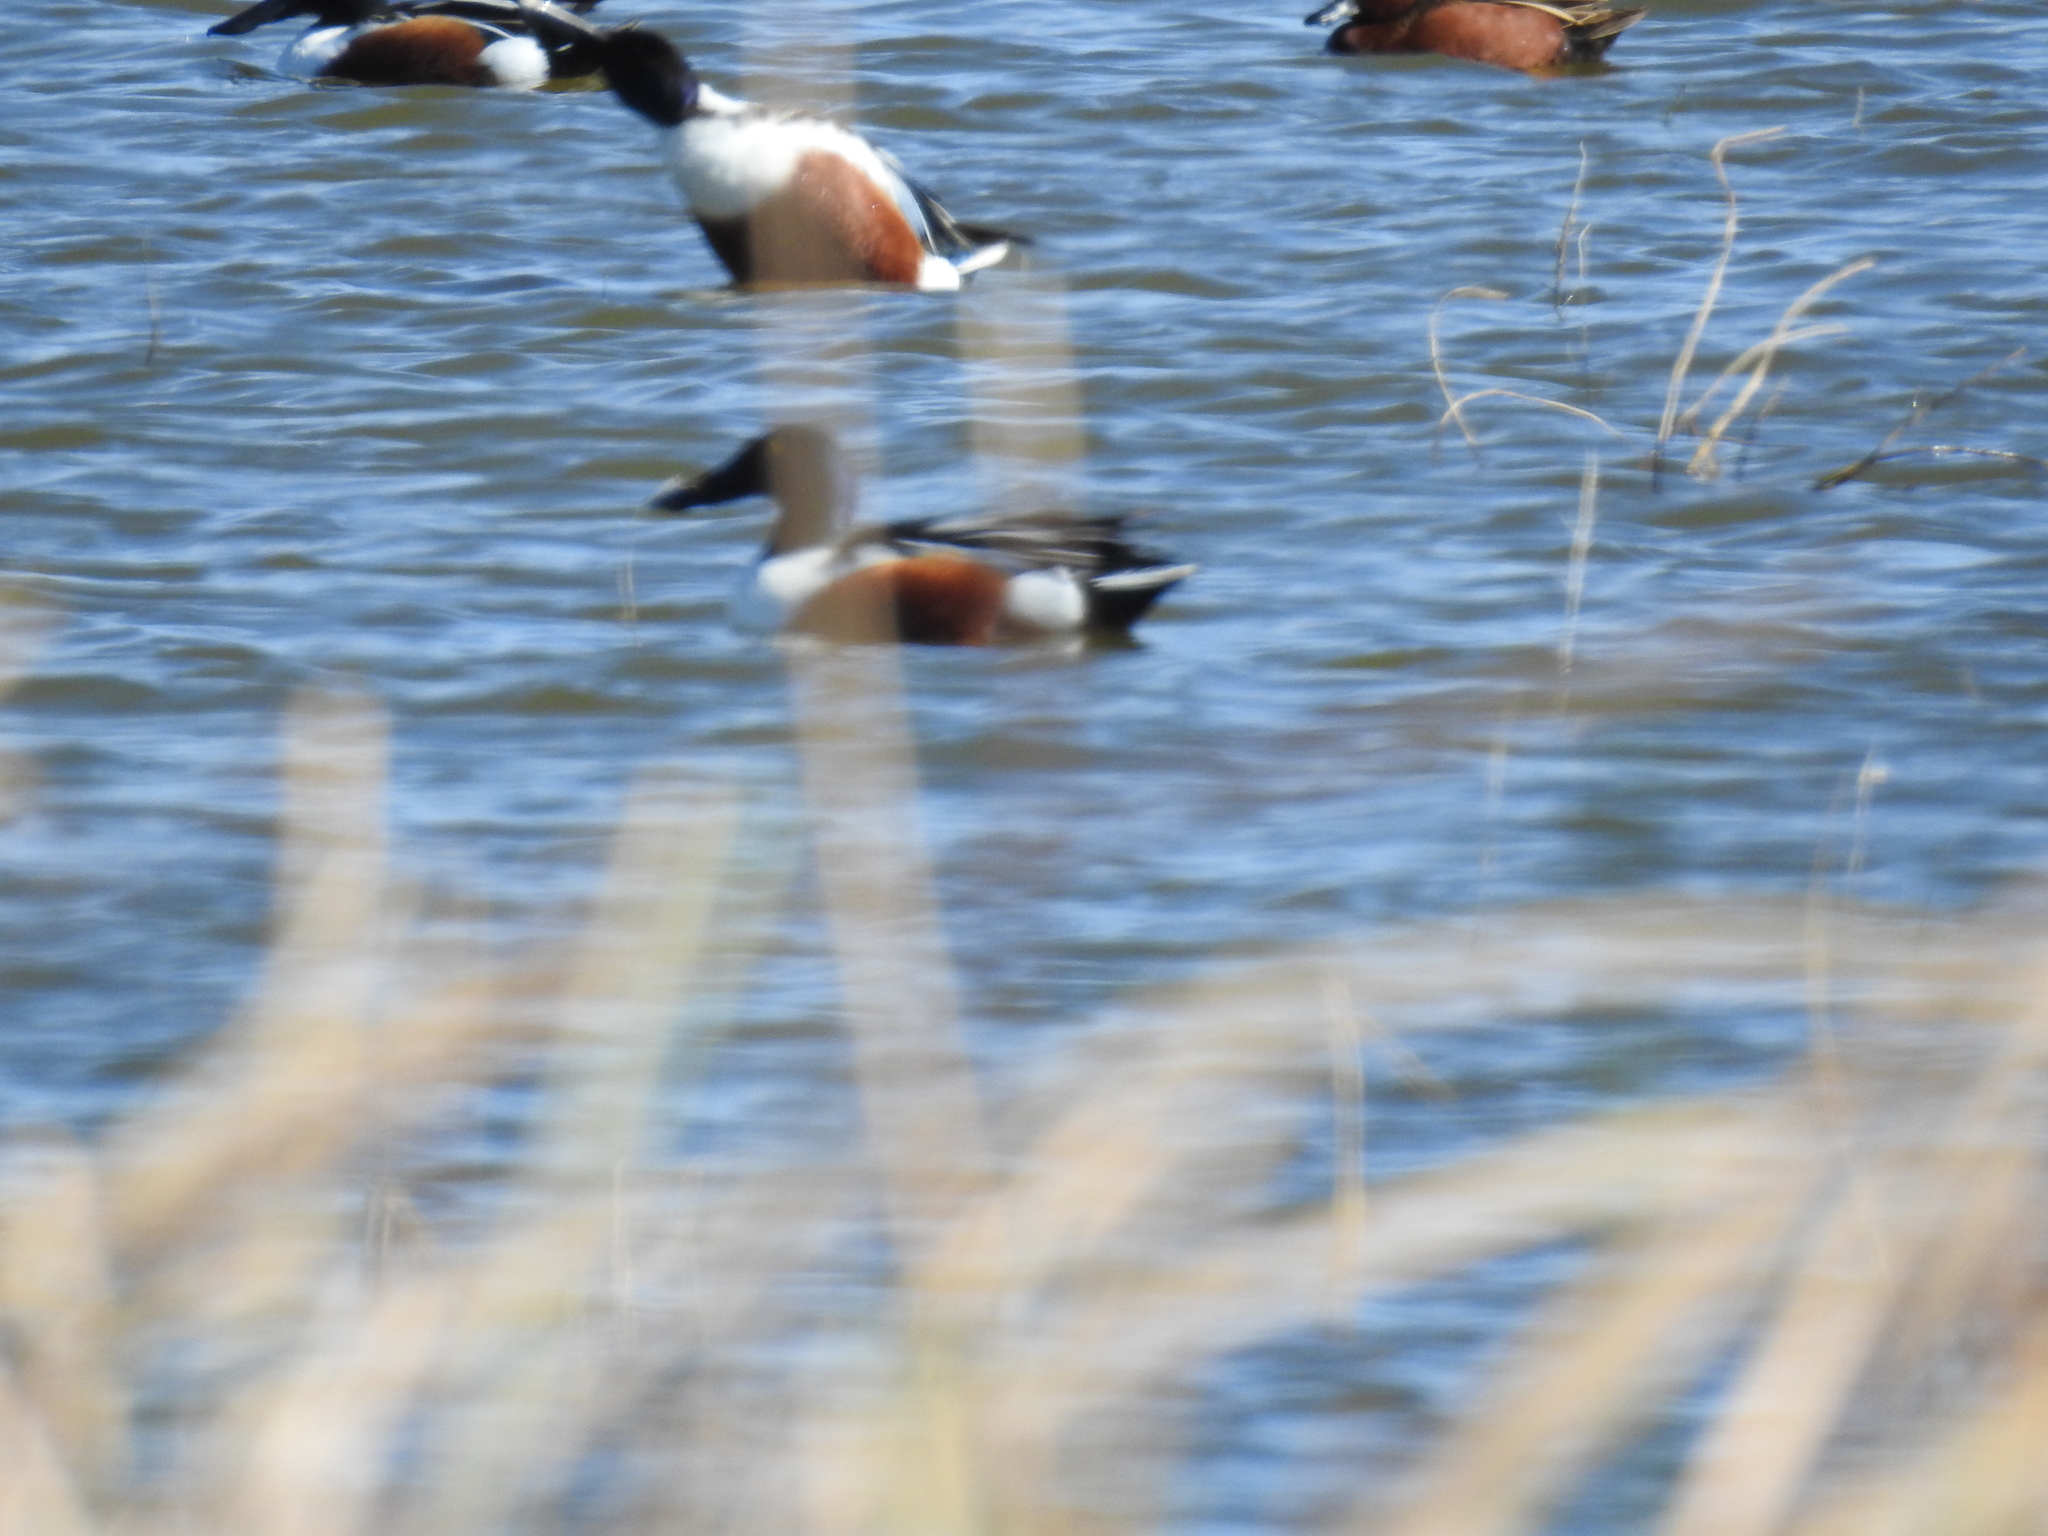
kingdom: Animalia
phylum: Chordata
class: Aves
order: Anseriformes
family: Anatidae
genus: Spatula
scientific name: Spatula clypeata
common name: Northern shoveler
